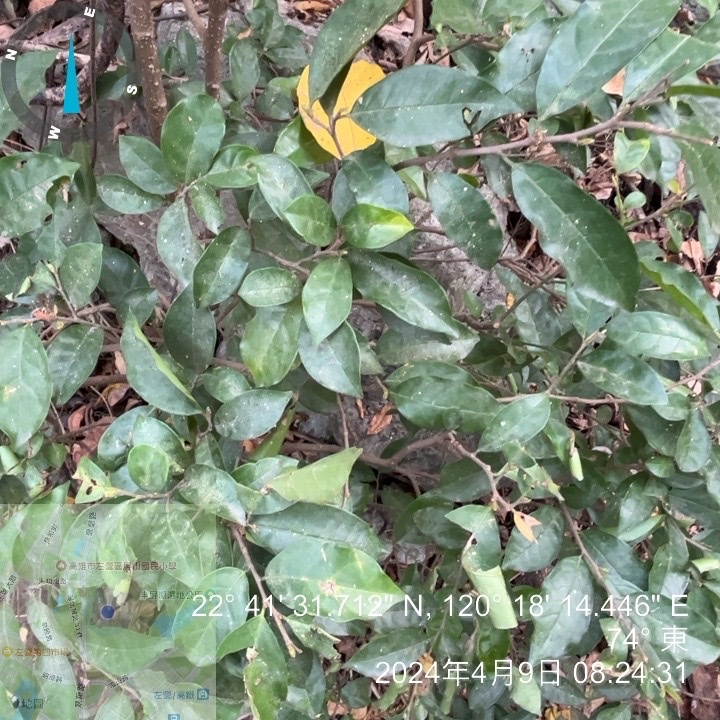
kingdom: Plantae
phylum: Tracheophyta
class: Magnoliopsida
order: Malpighiales
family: Phyllanthaceae
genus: Antidesma
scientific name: Antidesma montanum
